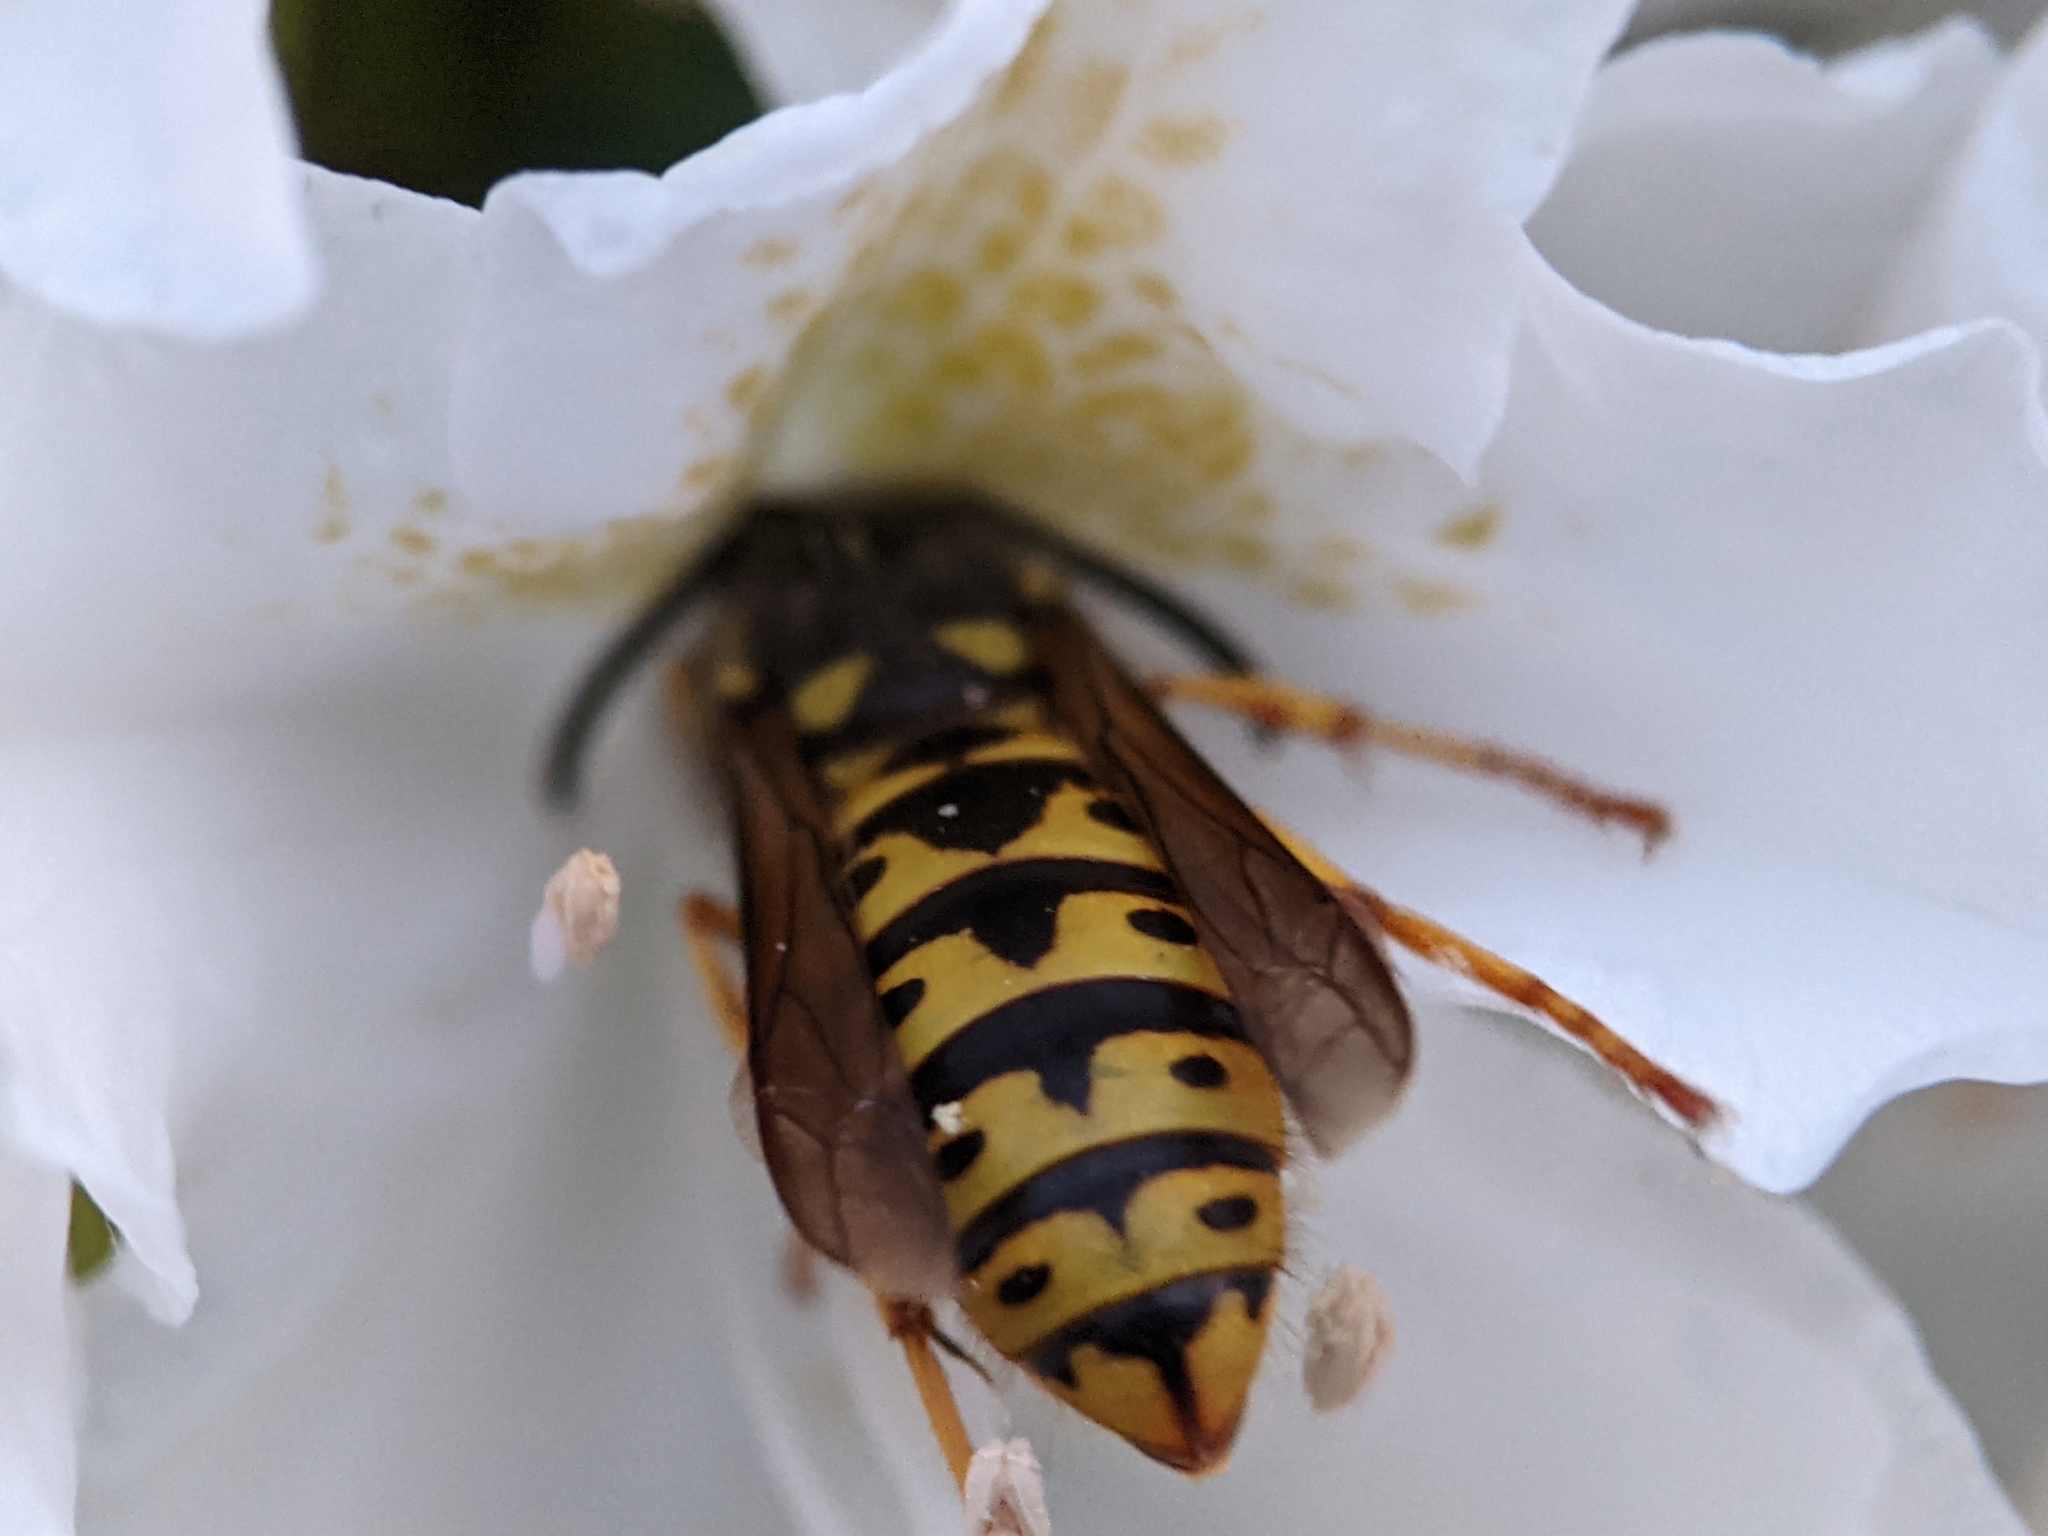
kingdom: Animalia
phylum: Arthropoda
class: Insecta
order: Hymenoptera
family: Vespidae
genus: Vespula
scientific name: Vespula germanica
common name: German wasp
